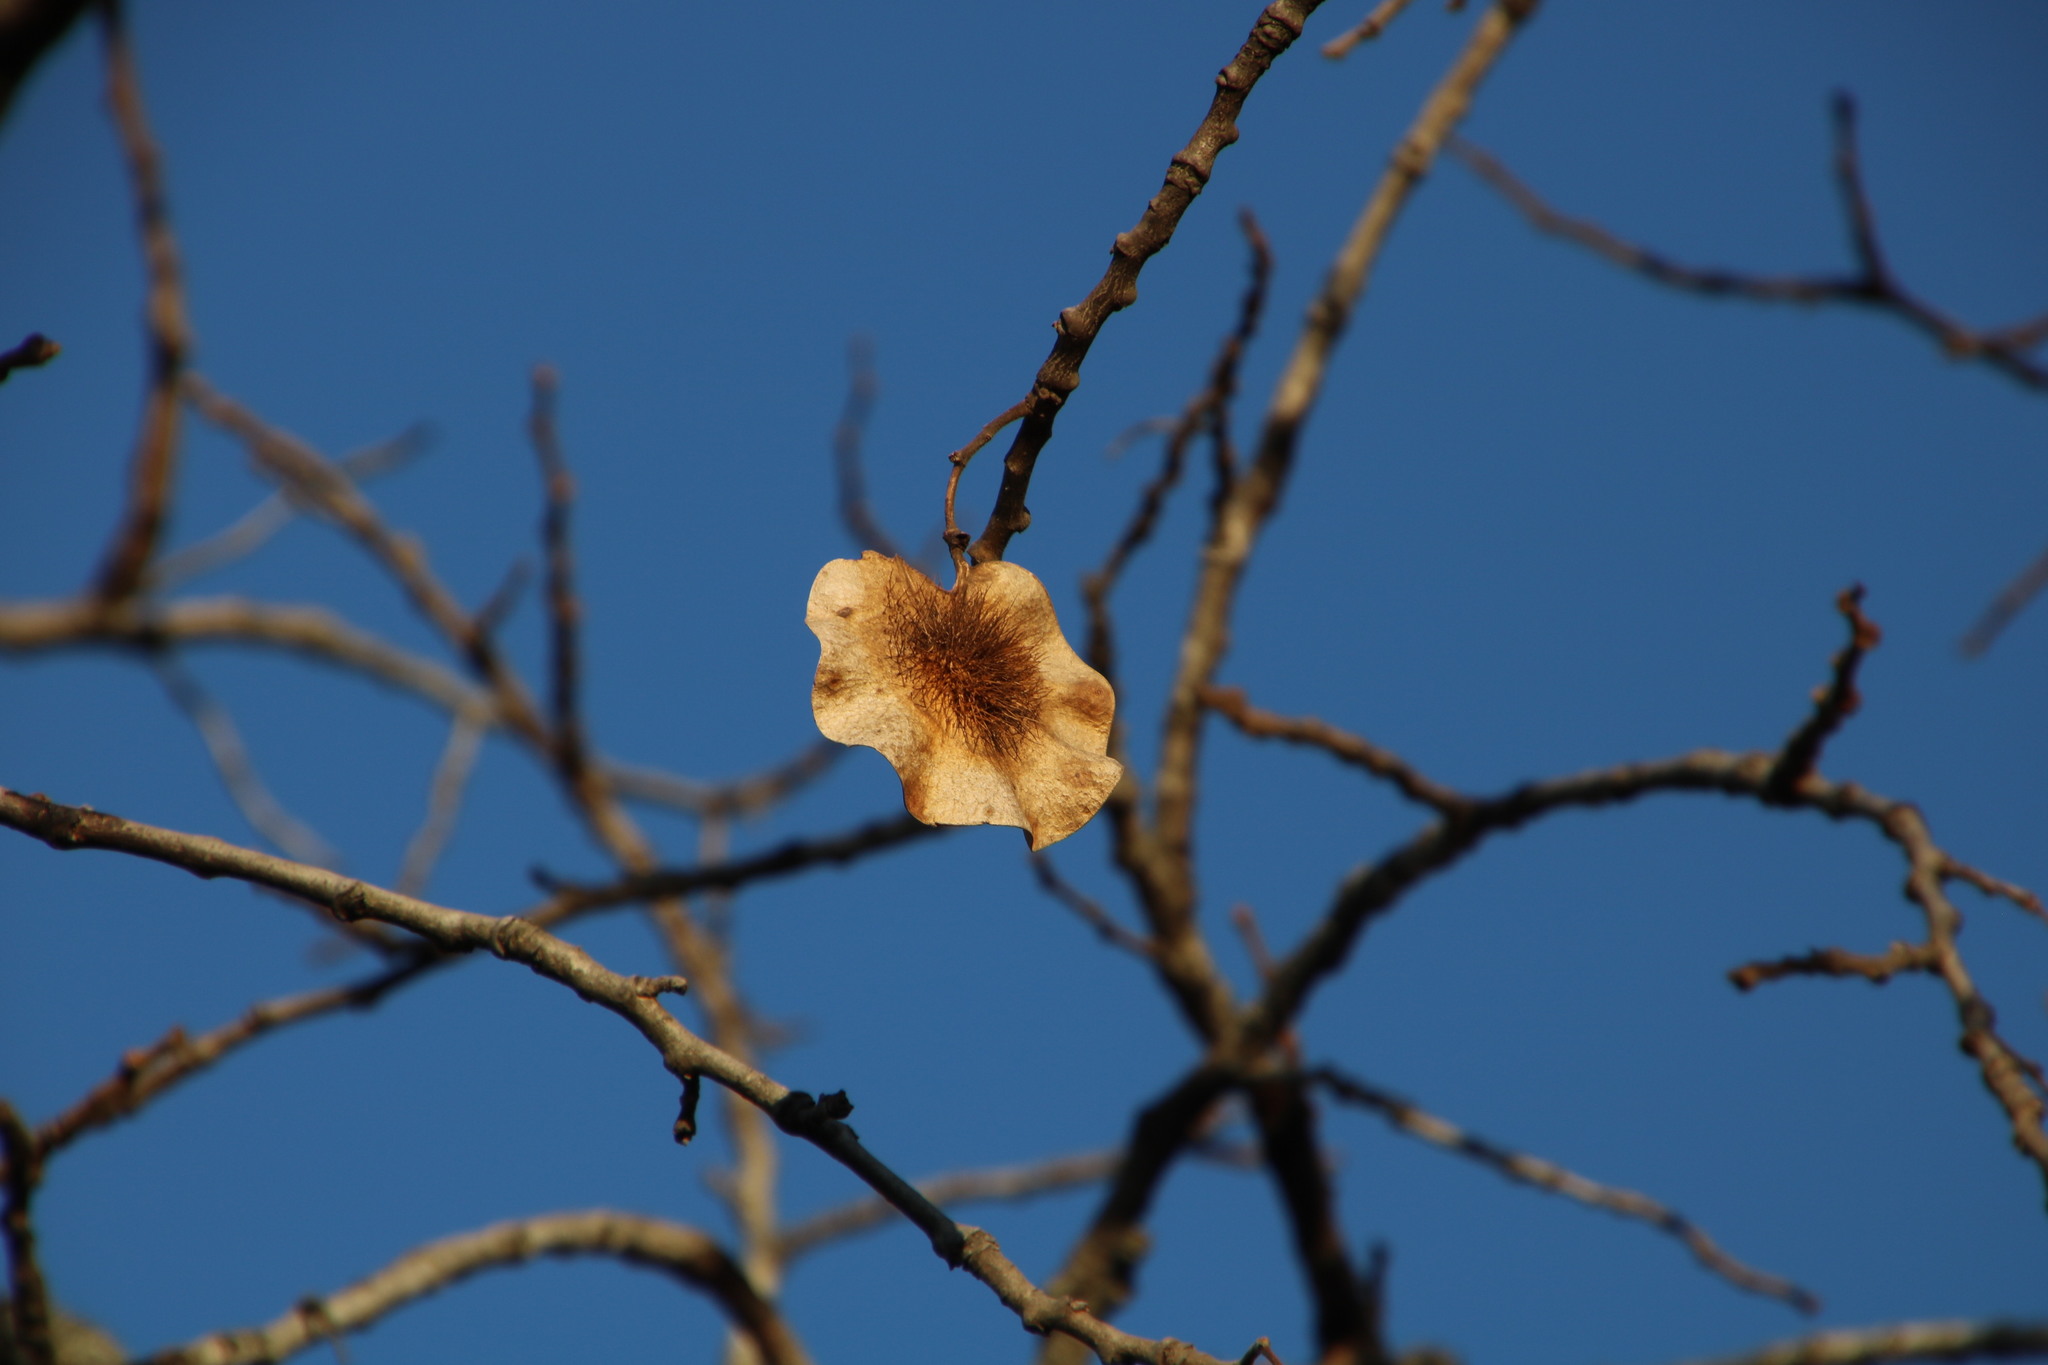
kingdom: Plantae
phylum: Tracheophyta
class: Magnoliopsida
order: Fabales
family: Fabaceae
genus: Pterocarpus
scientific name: Pterocarpus angolensis
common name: Bloodwood tree
